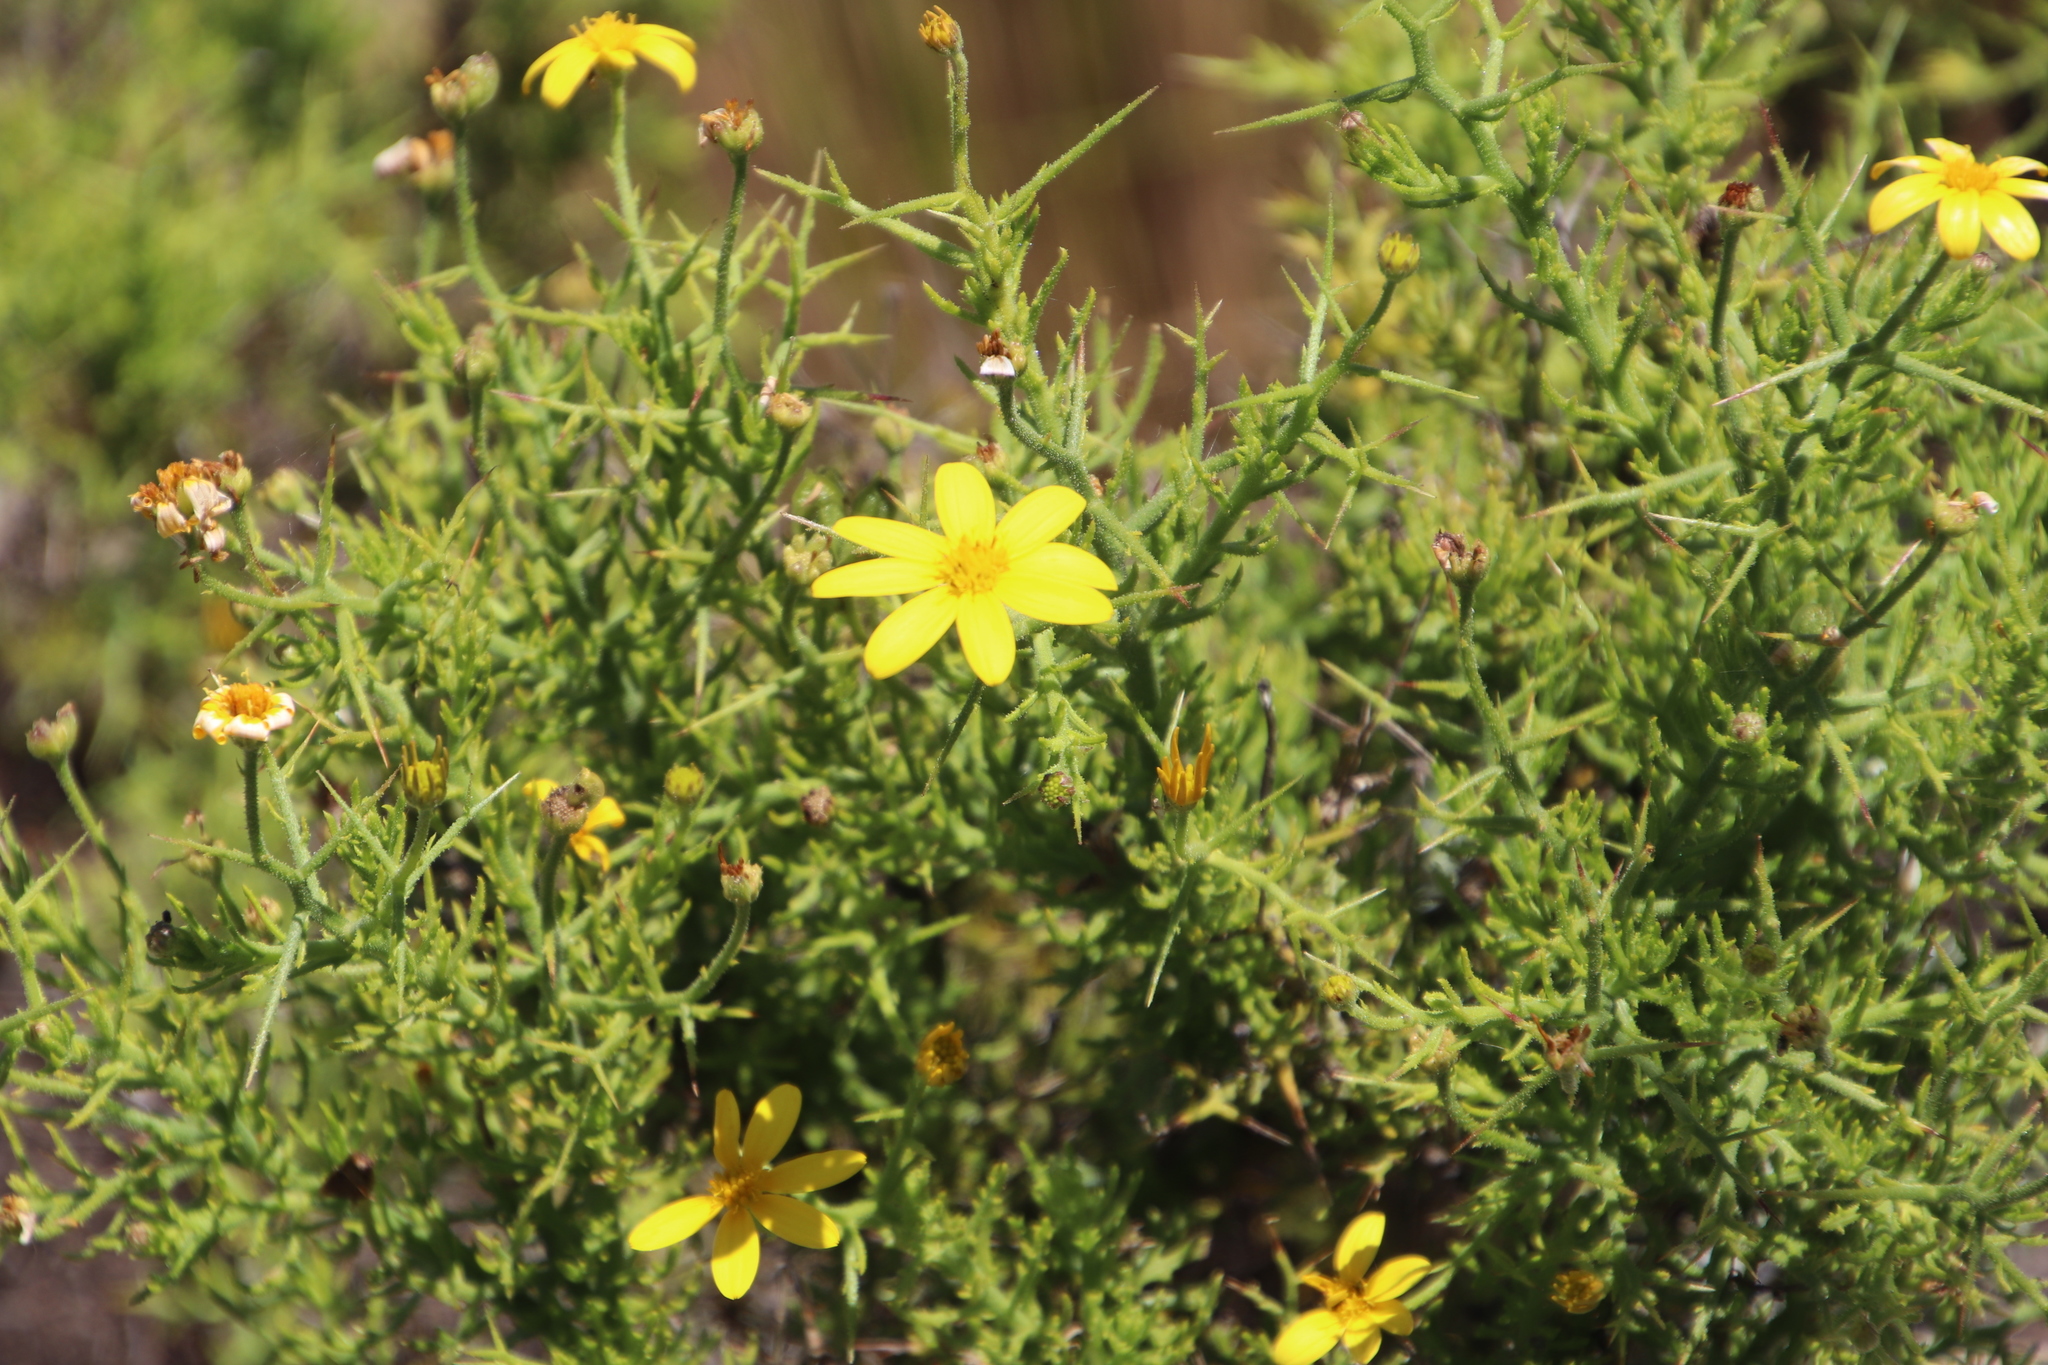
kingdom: Plantae
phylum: Tracheophyta
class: Magnoliopsida
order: Asterales
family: Asteraceae
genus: Osteospermum
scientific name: Osteospermum spinosum
